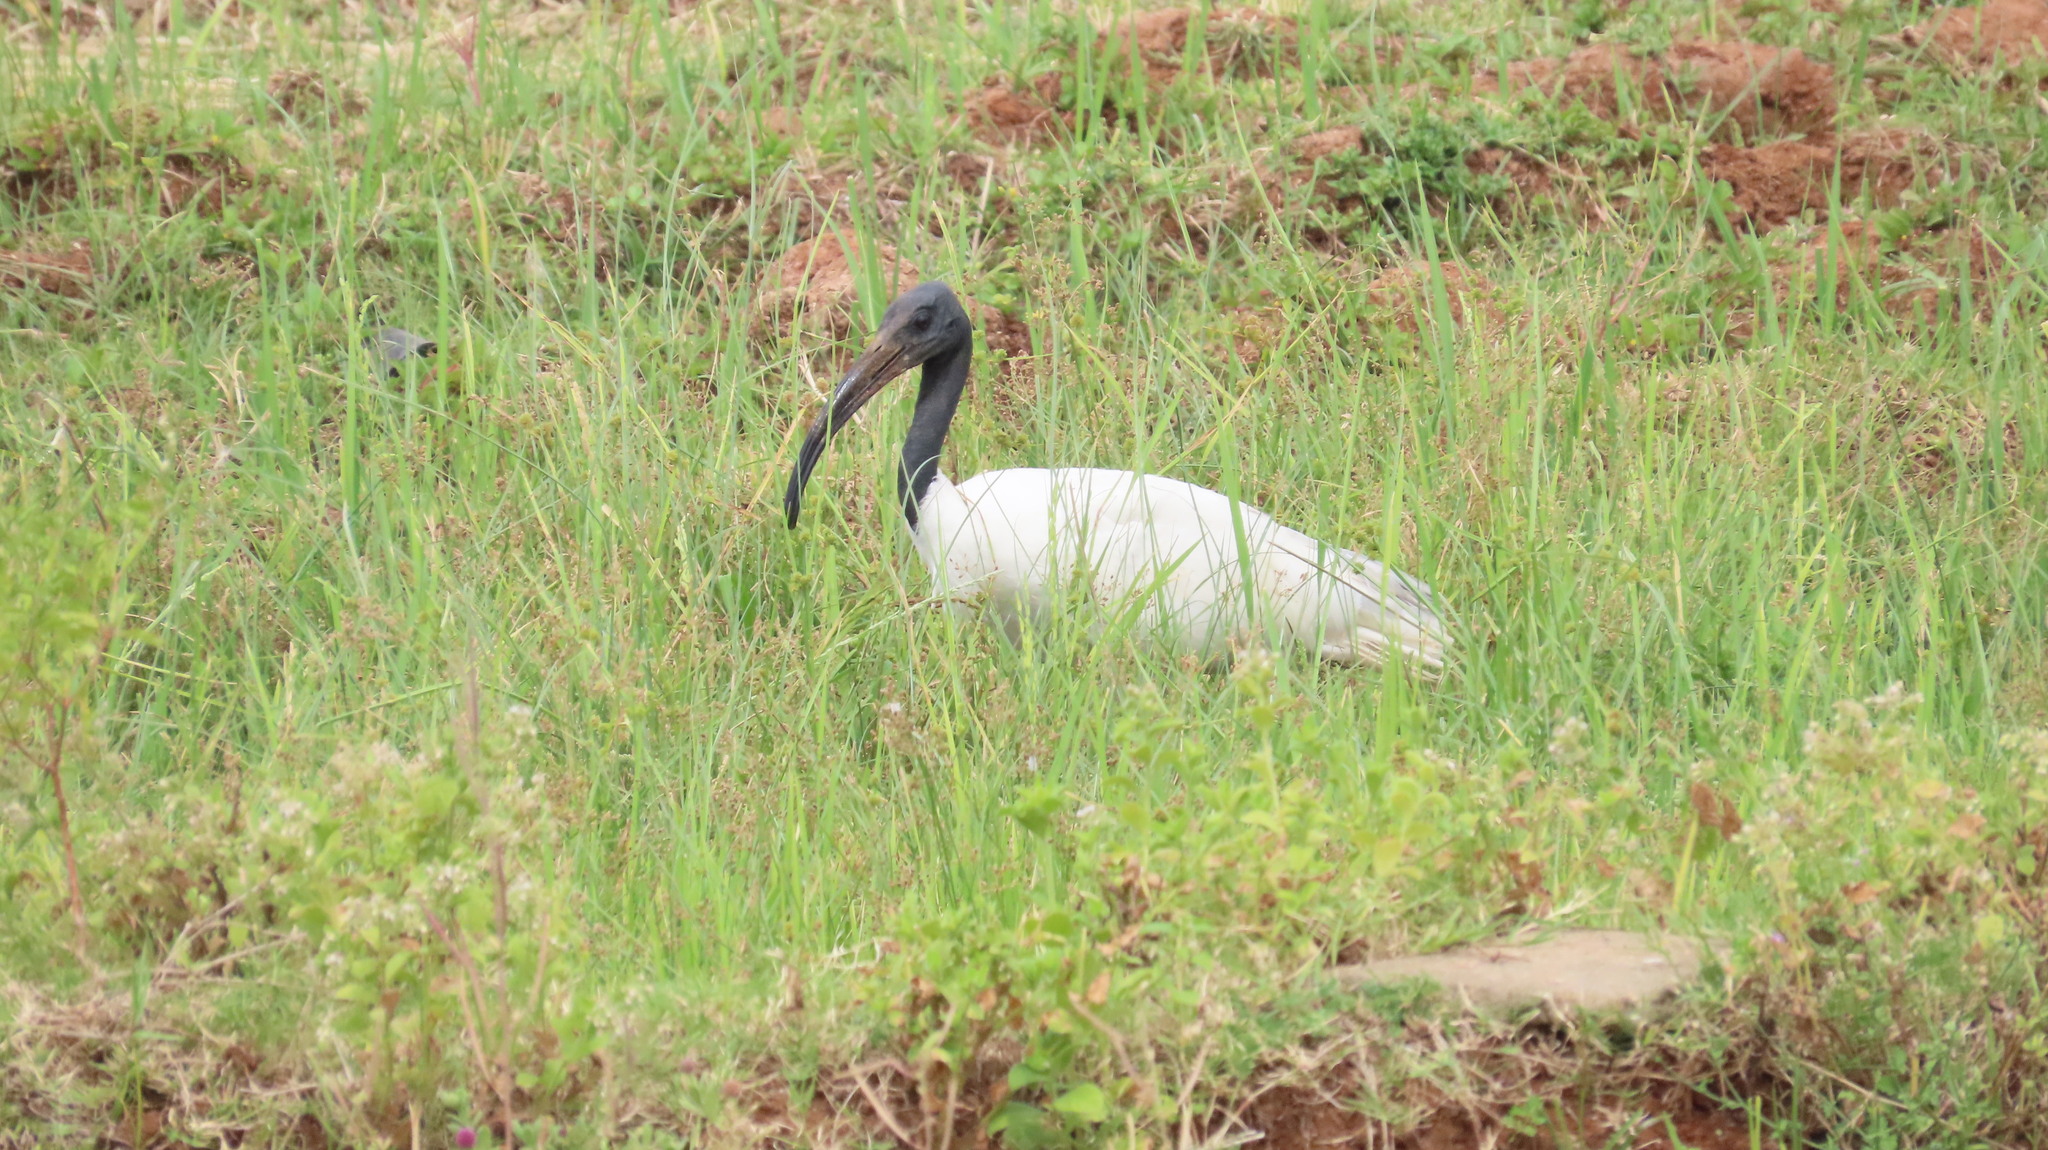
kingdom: Animalia
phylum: Chordata
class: Aves
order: Pelecaniformes
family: Threskiornithidae
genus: Threskiornis
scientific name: Threskiornis melanocephalus
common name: Black-headed ibis
